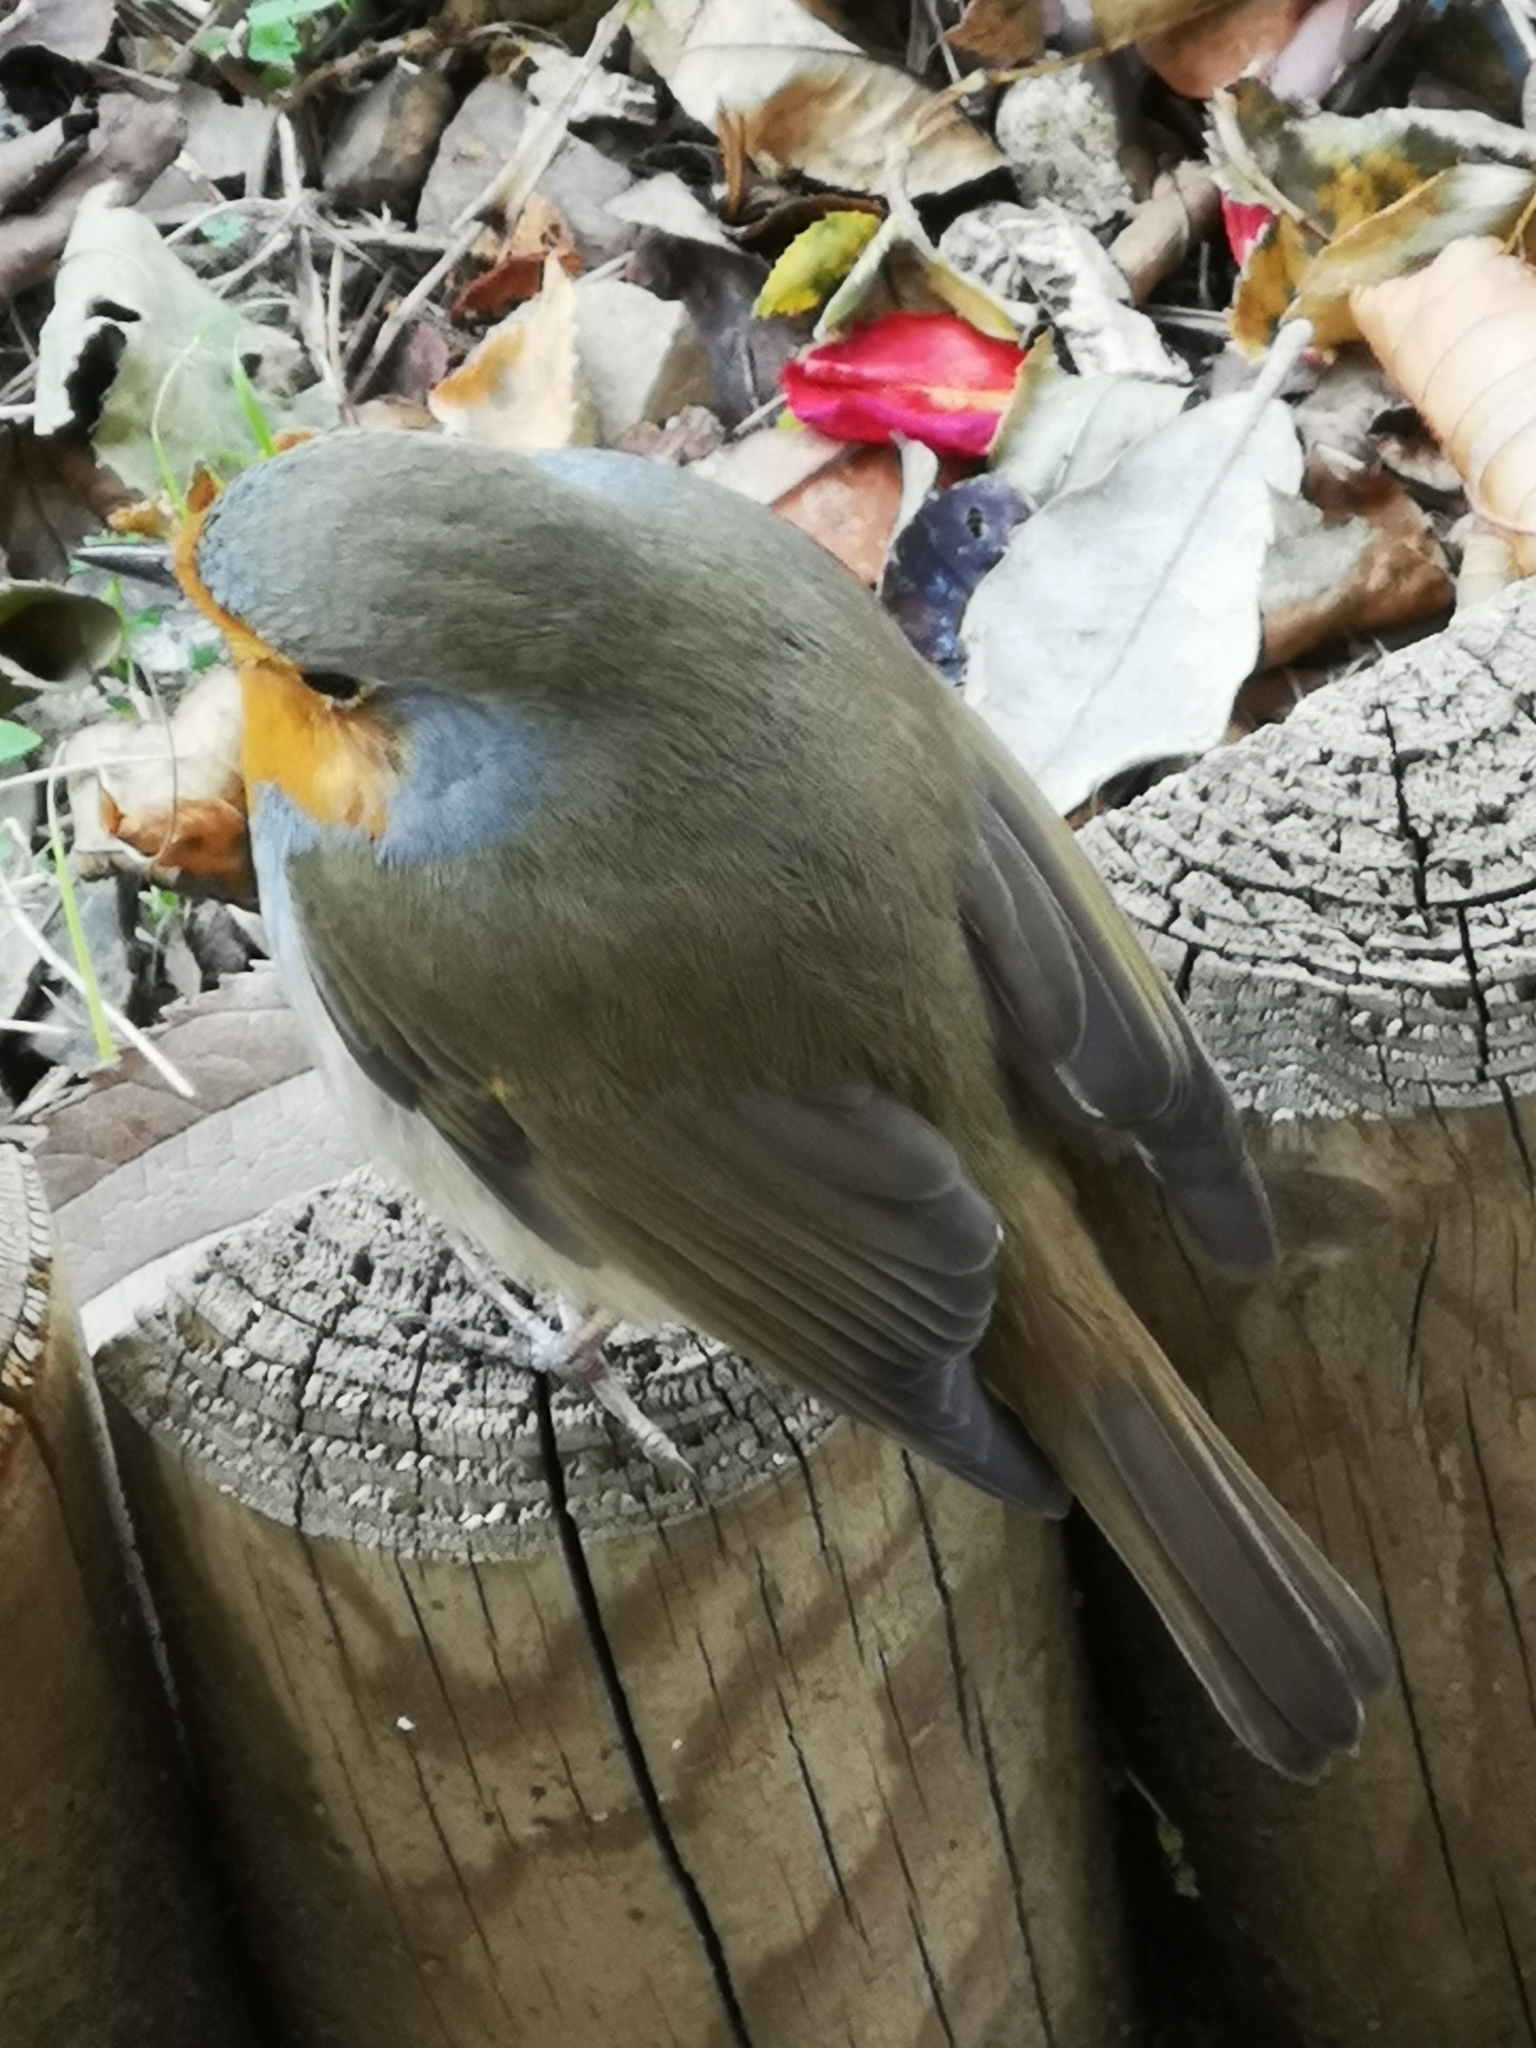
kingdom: Animalia
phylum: Chordata
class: Aves
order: Passeriformes
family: Muscicapidae
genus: Erithacus
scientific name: Erithacus rubecula
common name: European robin
